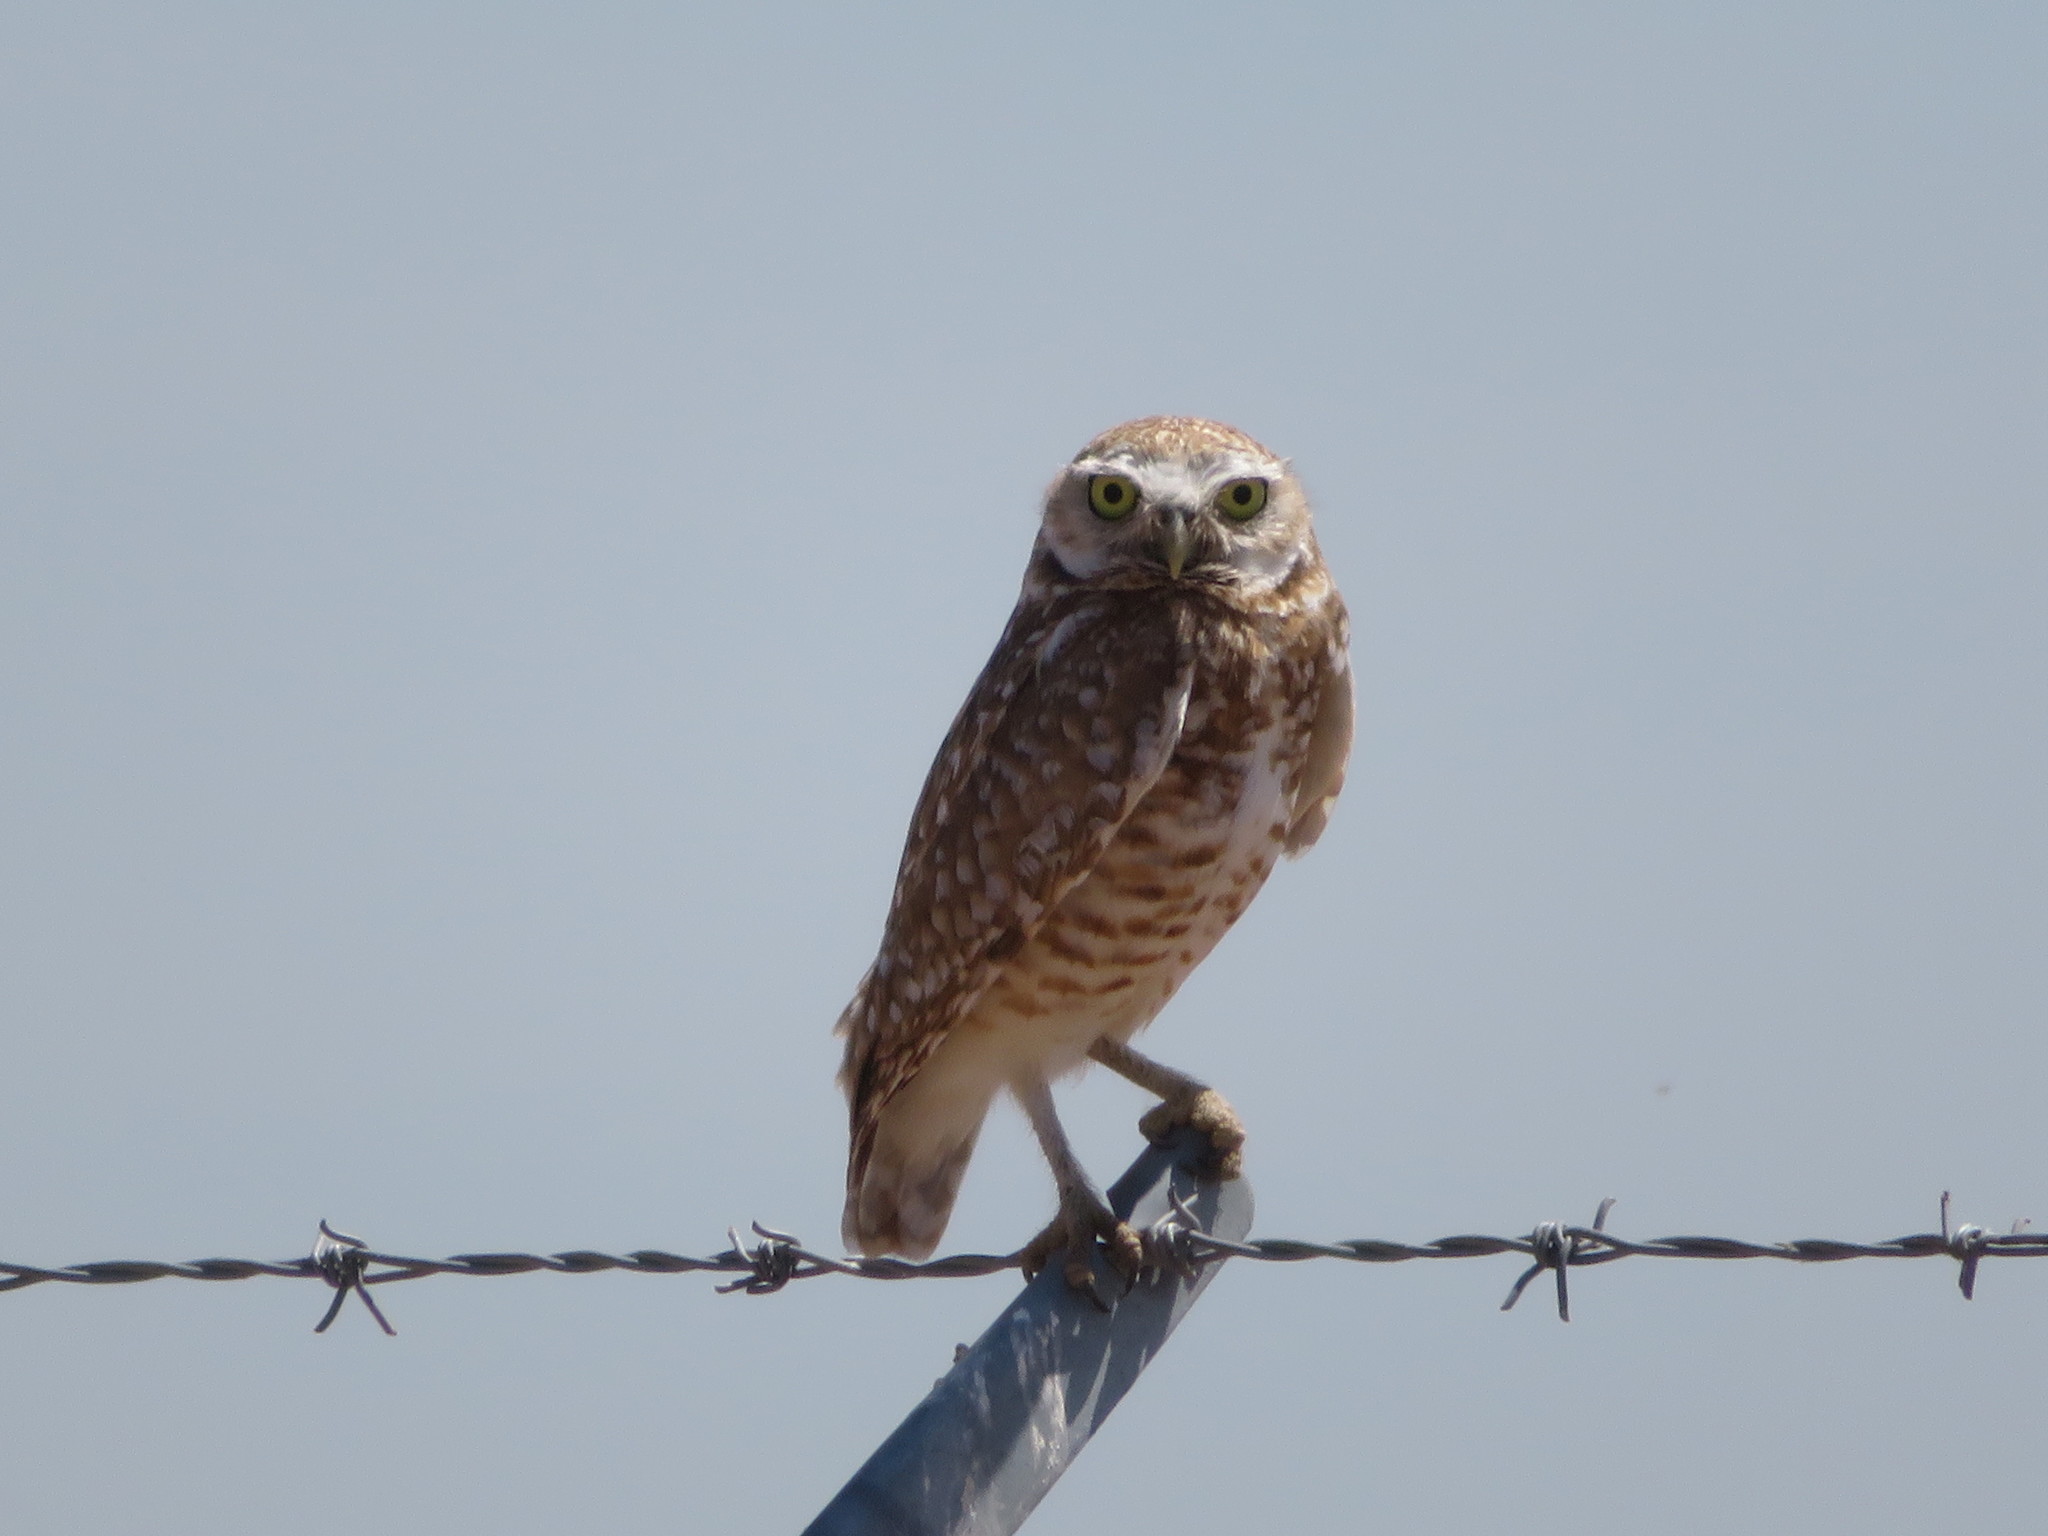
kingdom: Animalia
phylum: Chordata
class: Aves
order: Strigiformes
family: Strigidae
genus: Athene
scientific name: Athene cunicularia
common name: Burrowing owl
